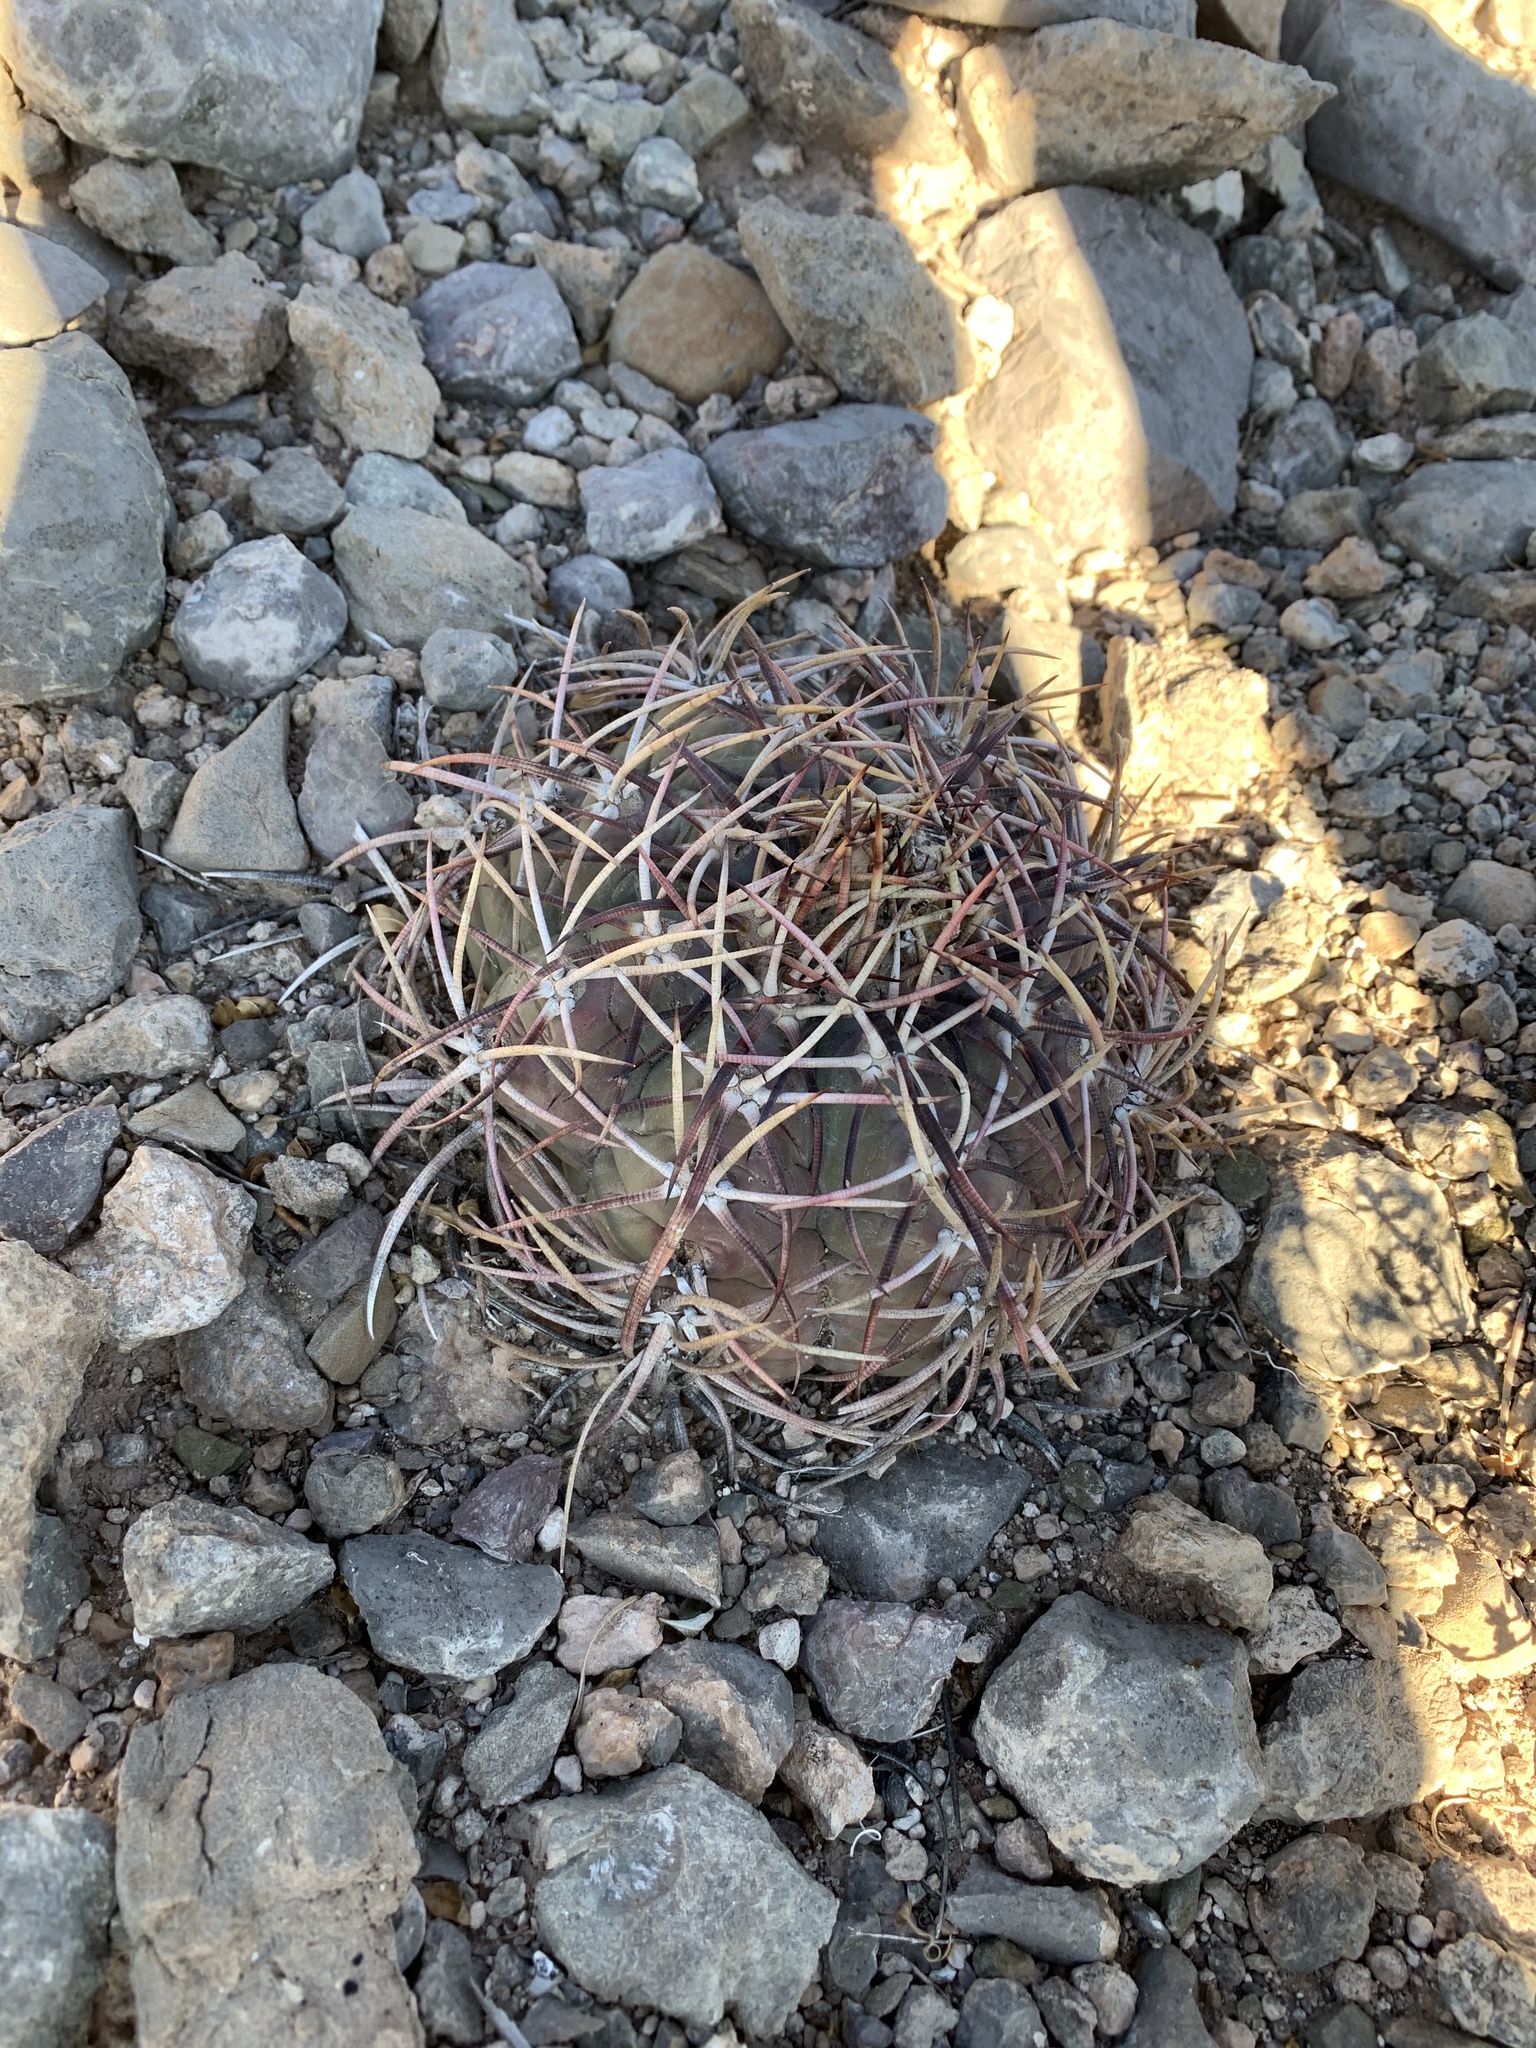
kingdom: Plantae
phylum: Tracheophyta
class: Magnoliopsida
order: Caryophyllales
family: Cactaceae
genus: Echinocactus
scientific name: Echinocactus horizonthalonius
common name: Devilshead
